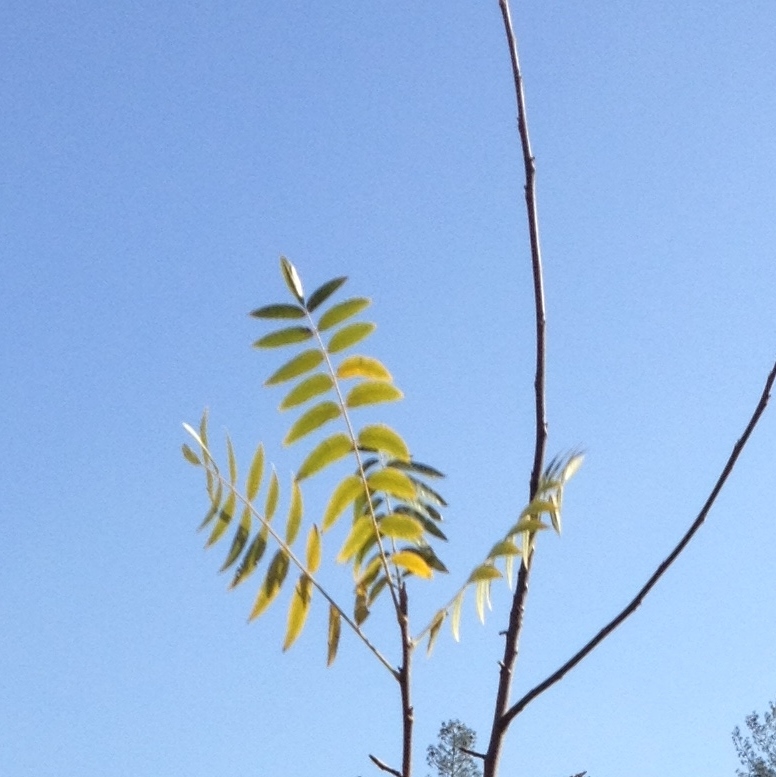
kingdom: Plantae
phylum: Tracheophyta
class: Magnoliopsida
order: Fagales
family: Juglandaceae
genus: Juglans
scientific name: Juglans hindsii
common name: Northern california black walnut
